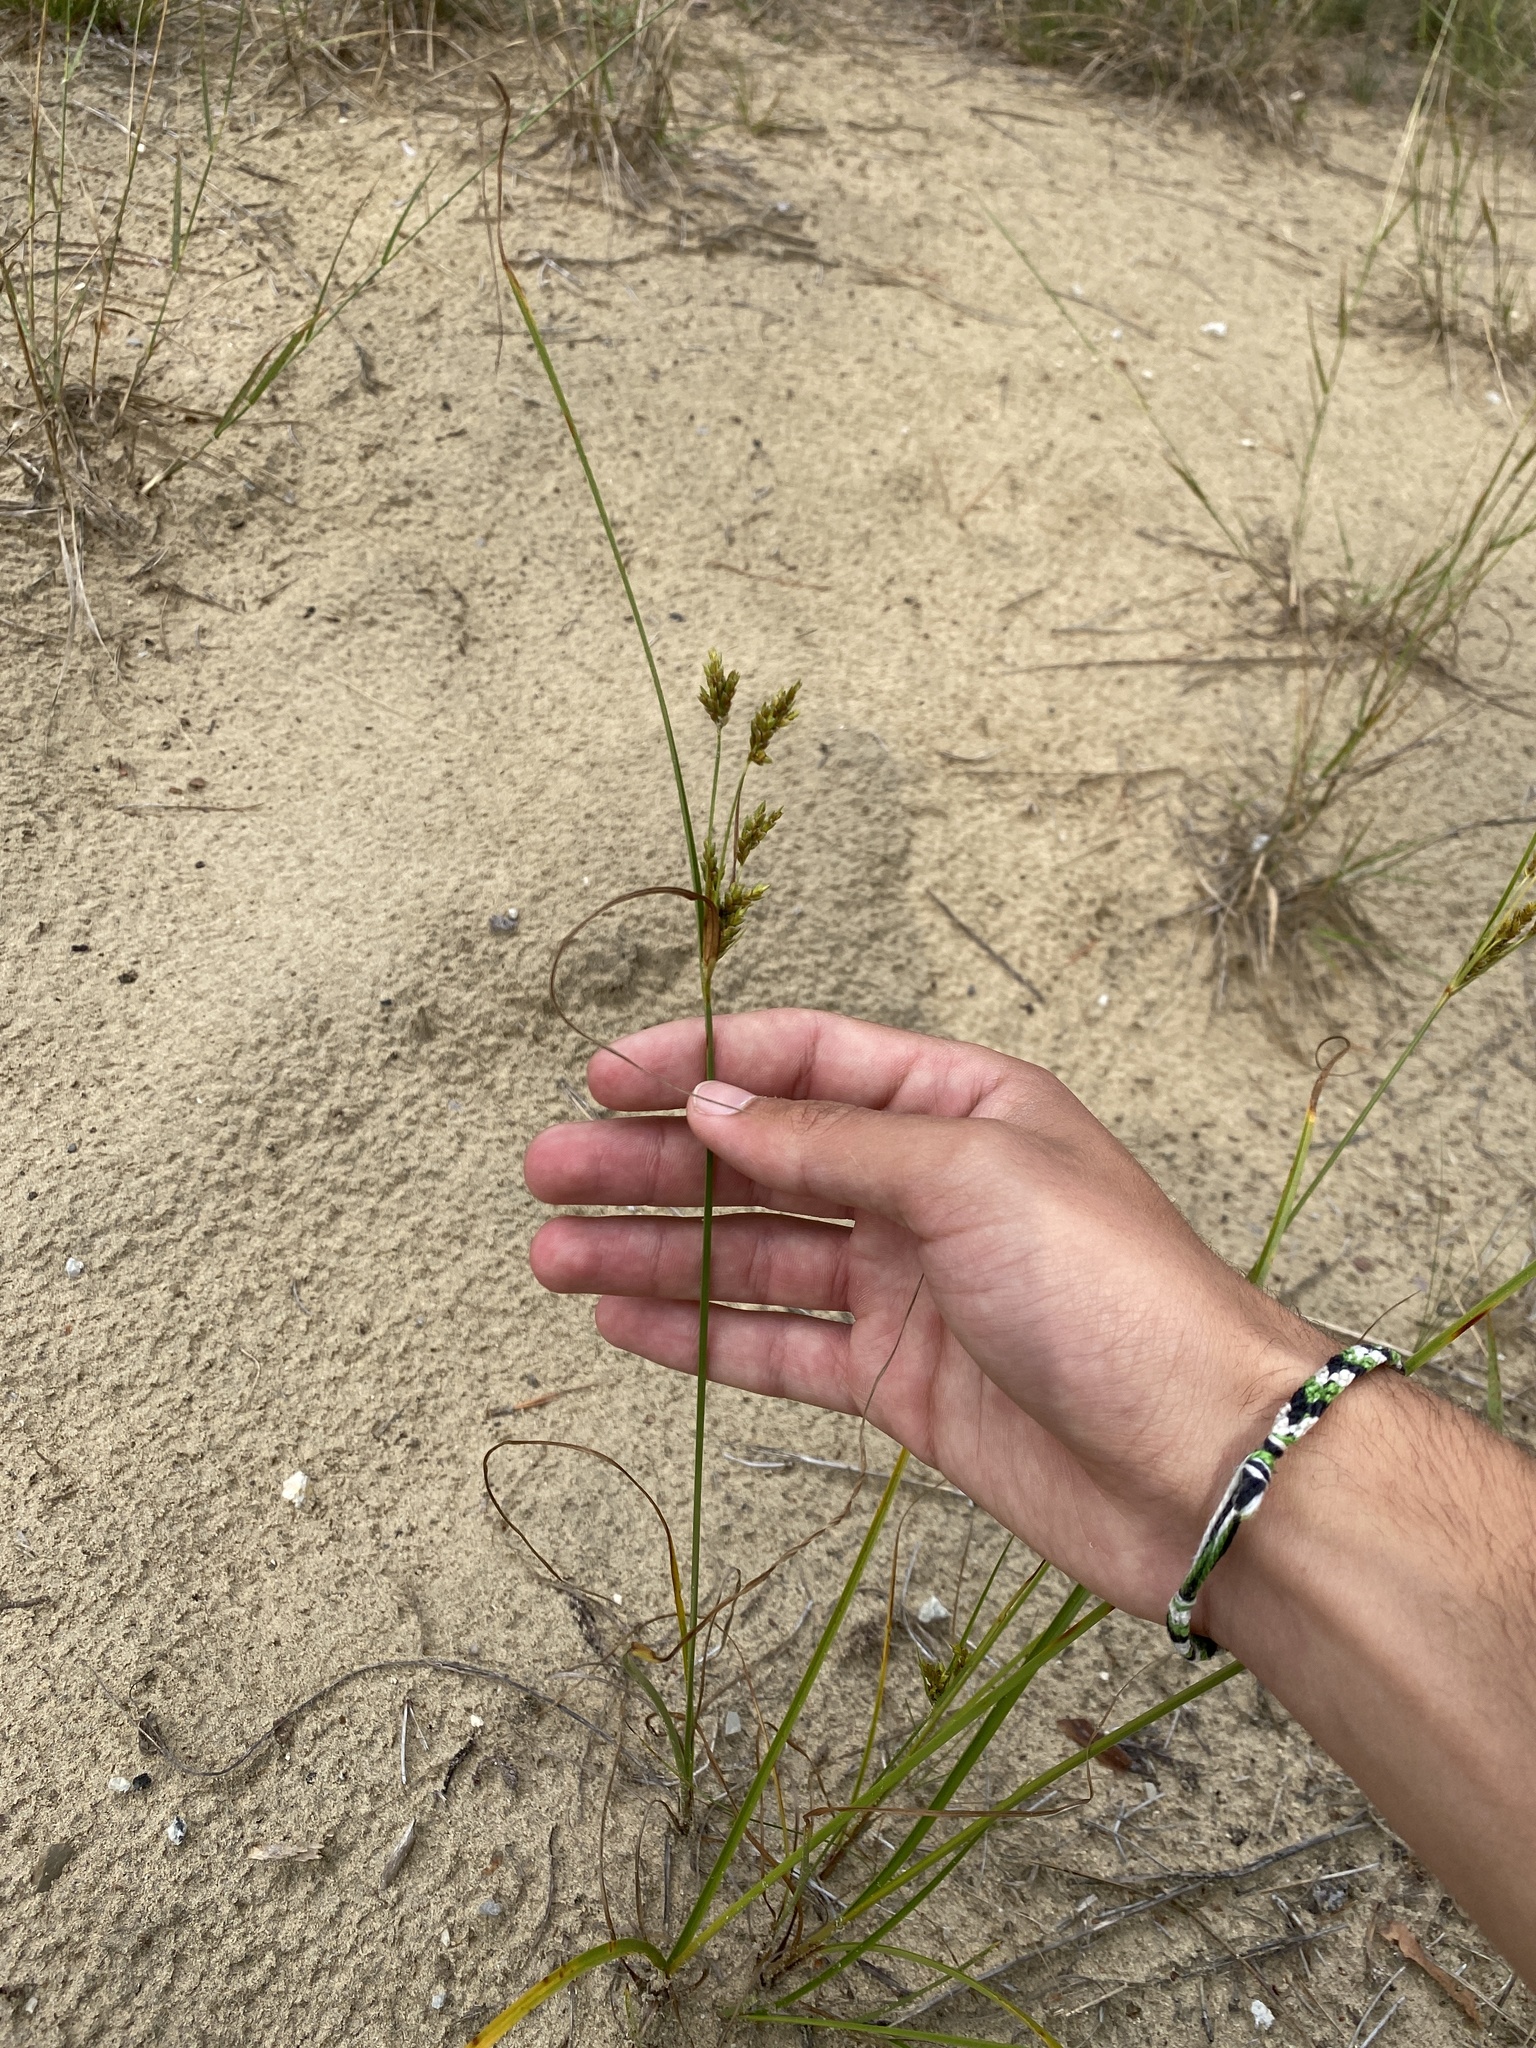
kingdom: Plantae
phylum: Tracheophyta
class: Liliopsida
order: Poales
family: Cyperaceae
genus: Cyperus
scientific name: Cyperus schweinitzii
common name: Schweinitz's cyperus
